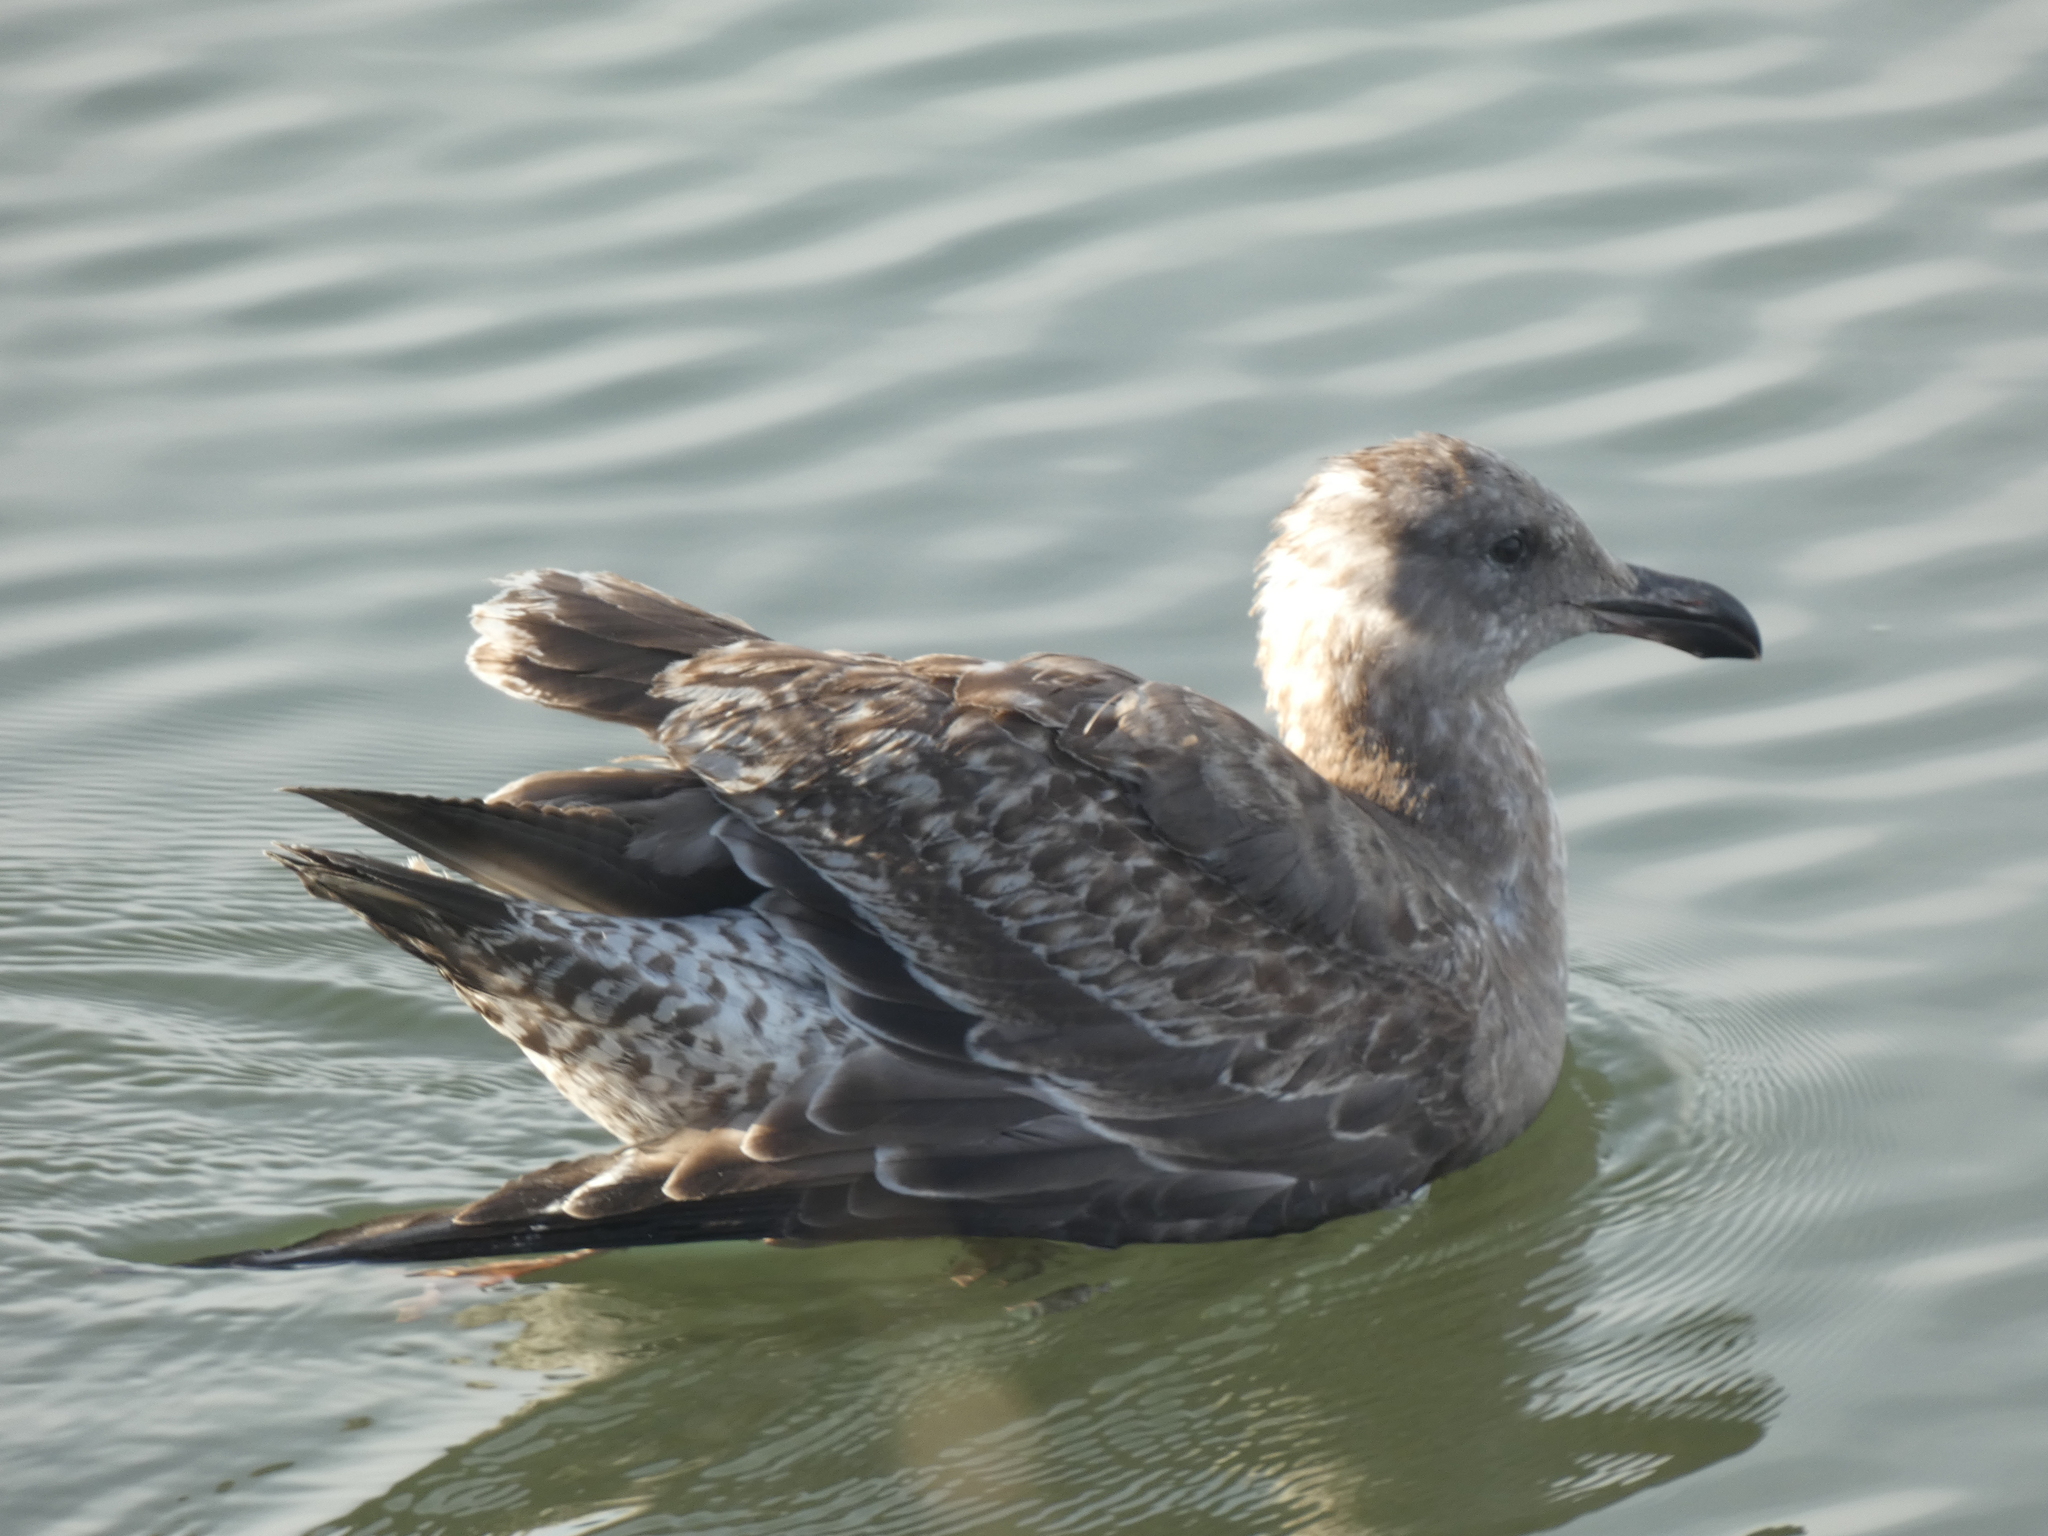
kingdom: Animalia
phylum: Chordata
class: Aves
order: Charadriiformes
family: Laridae
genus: Larus
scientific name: Larus occidentalis
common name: Western gull
